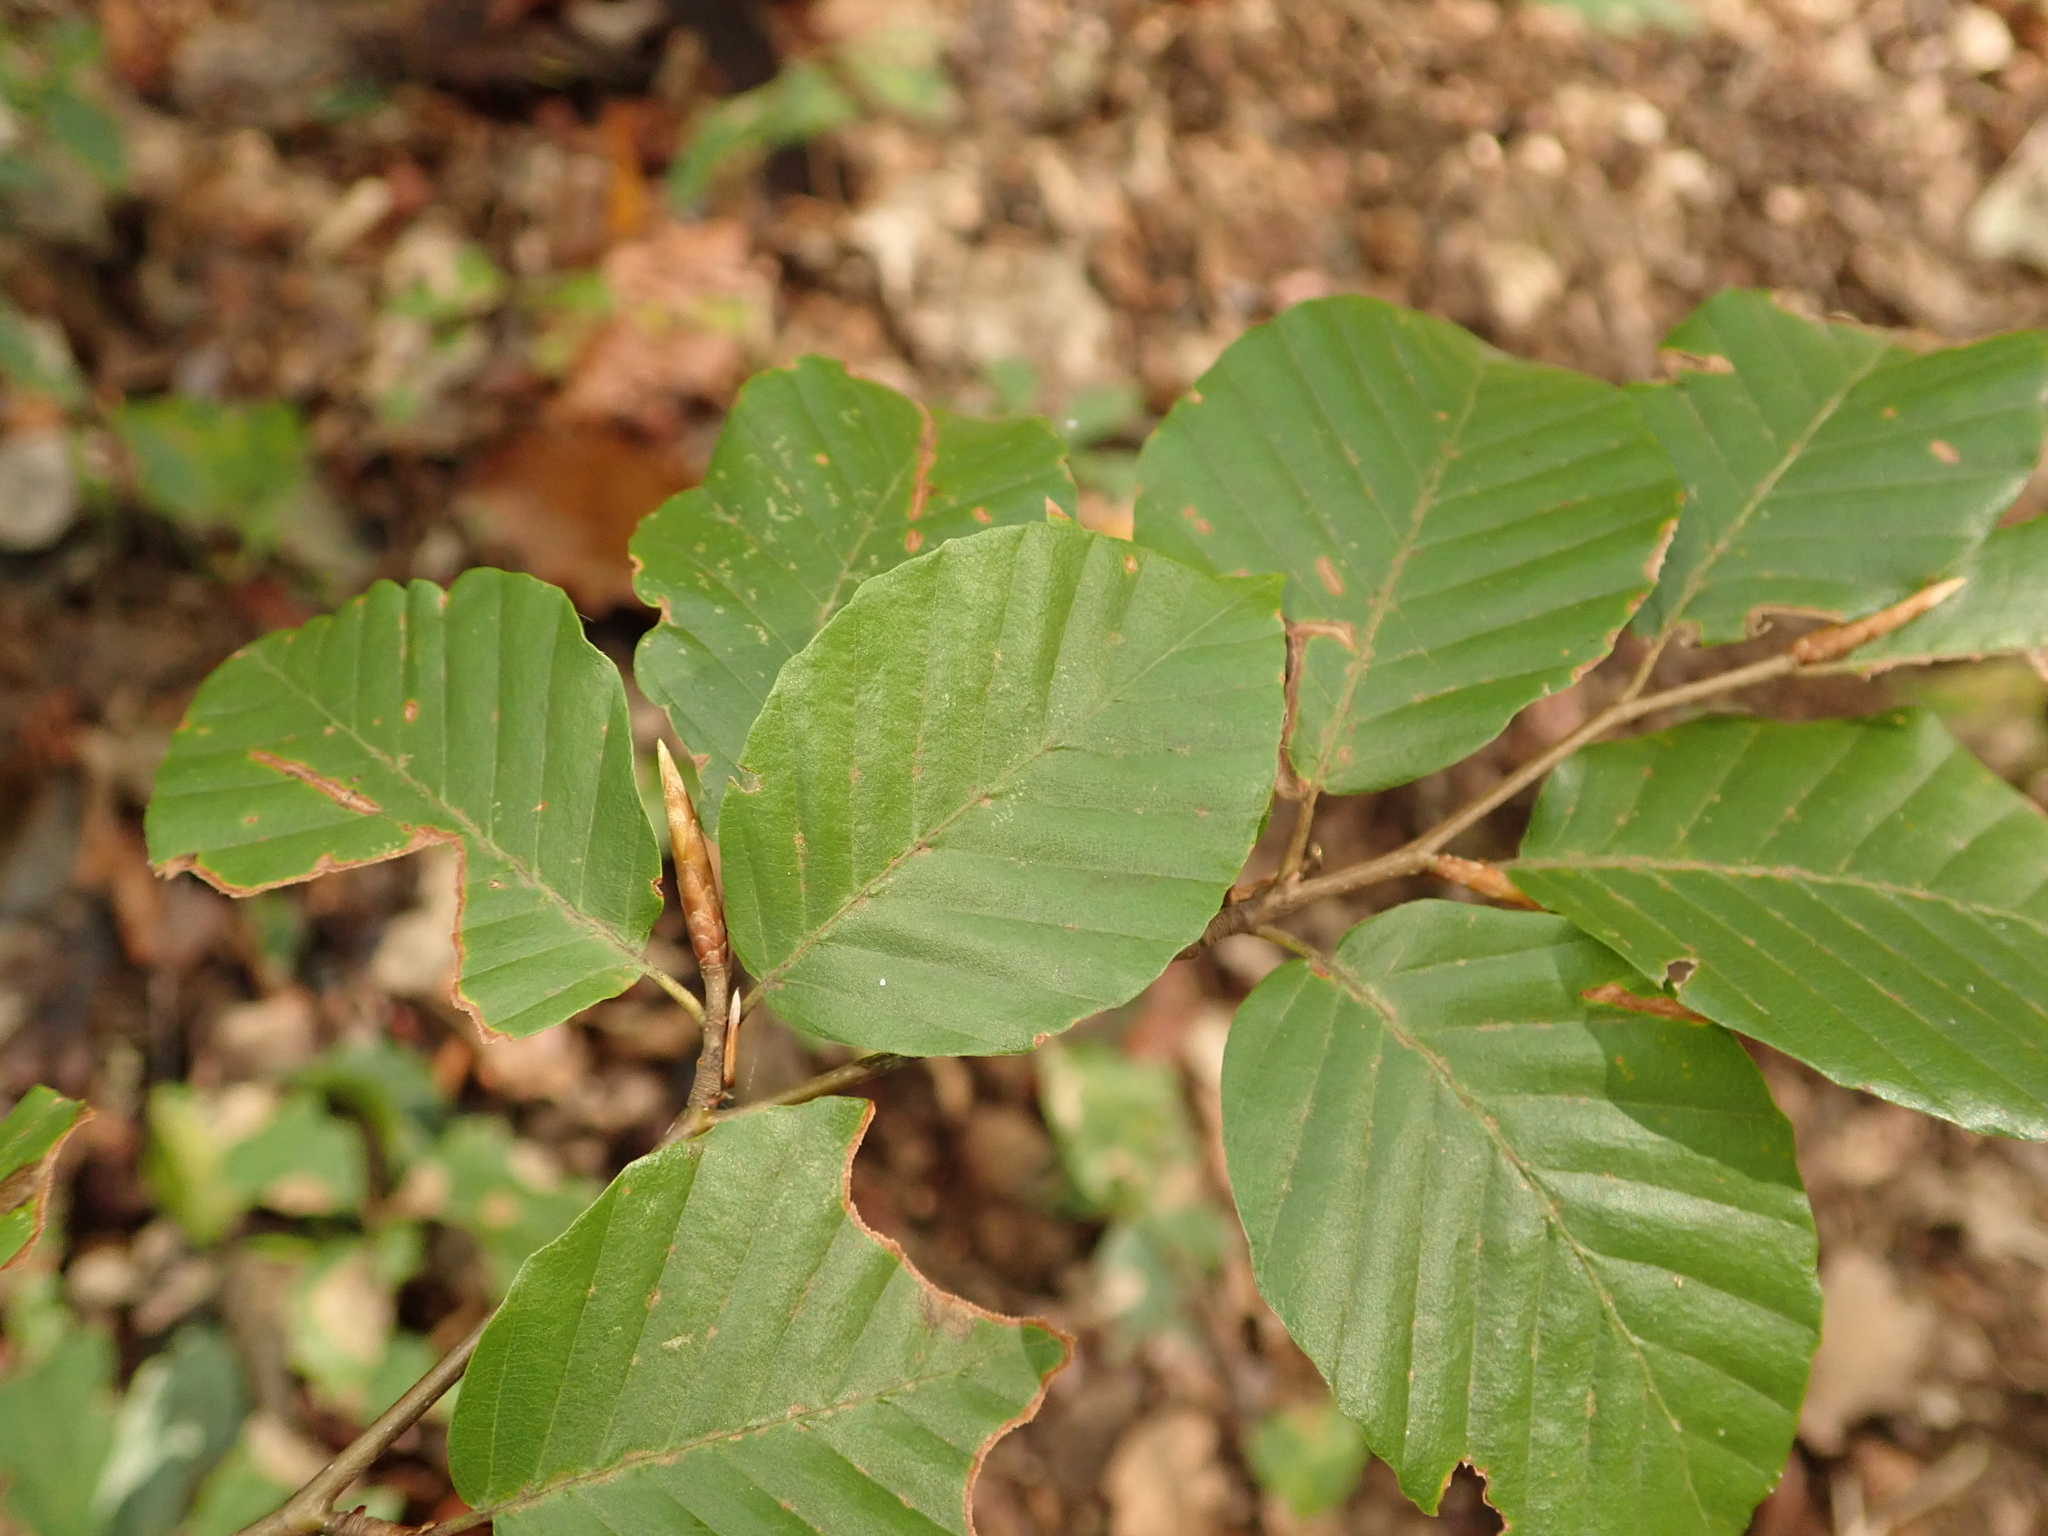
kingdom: Plantae
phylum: Tracheophyta
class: Magnoliopsida
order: Fagales
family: Fagaceae
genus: Fagus
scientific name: Fagus sylvatica
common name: Beech
